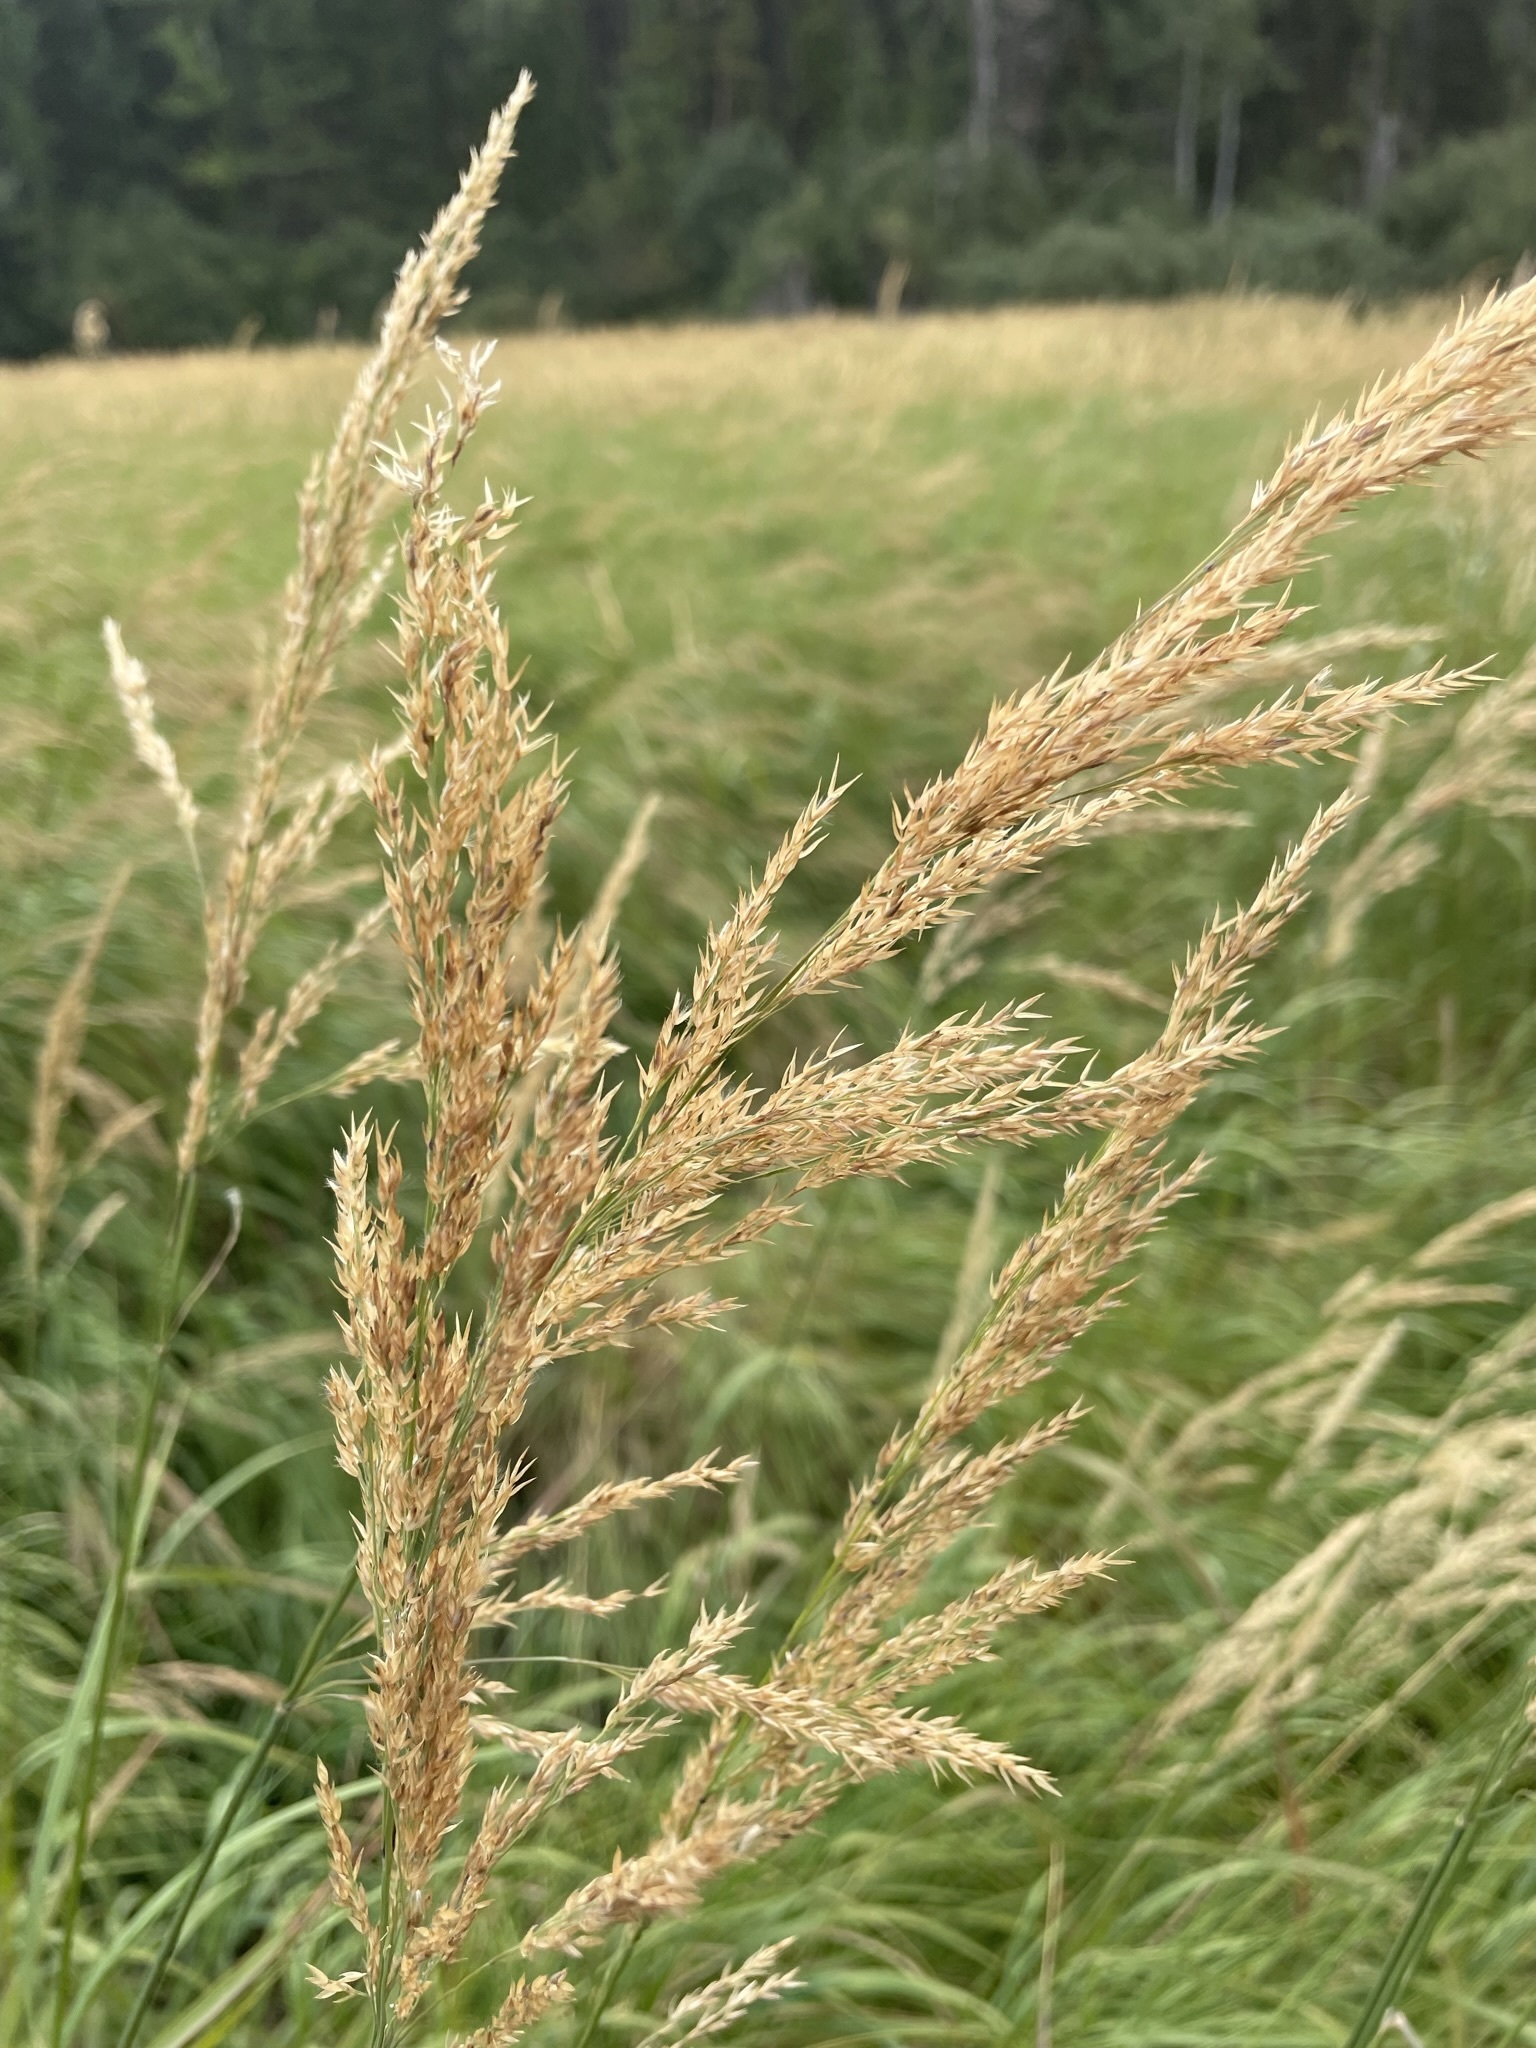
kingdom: Plantae
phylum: Tracheophyta
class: Liliopsida
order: Poales
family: Poaceae
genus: Calamagrostis
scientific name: Calamagrostis canadensis
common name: Canada bluejoint
